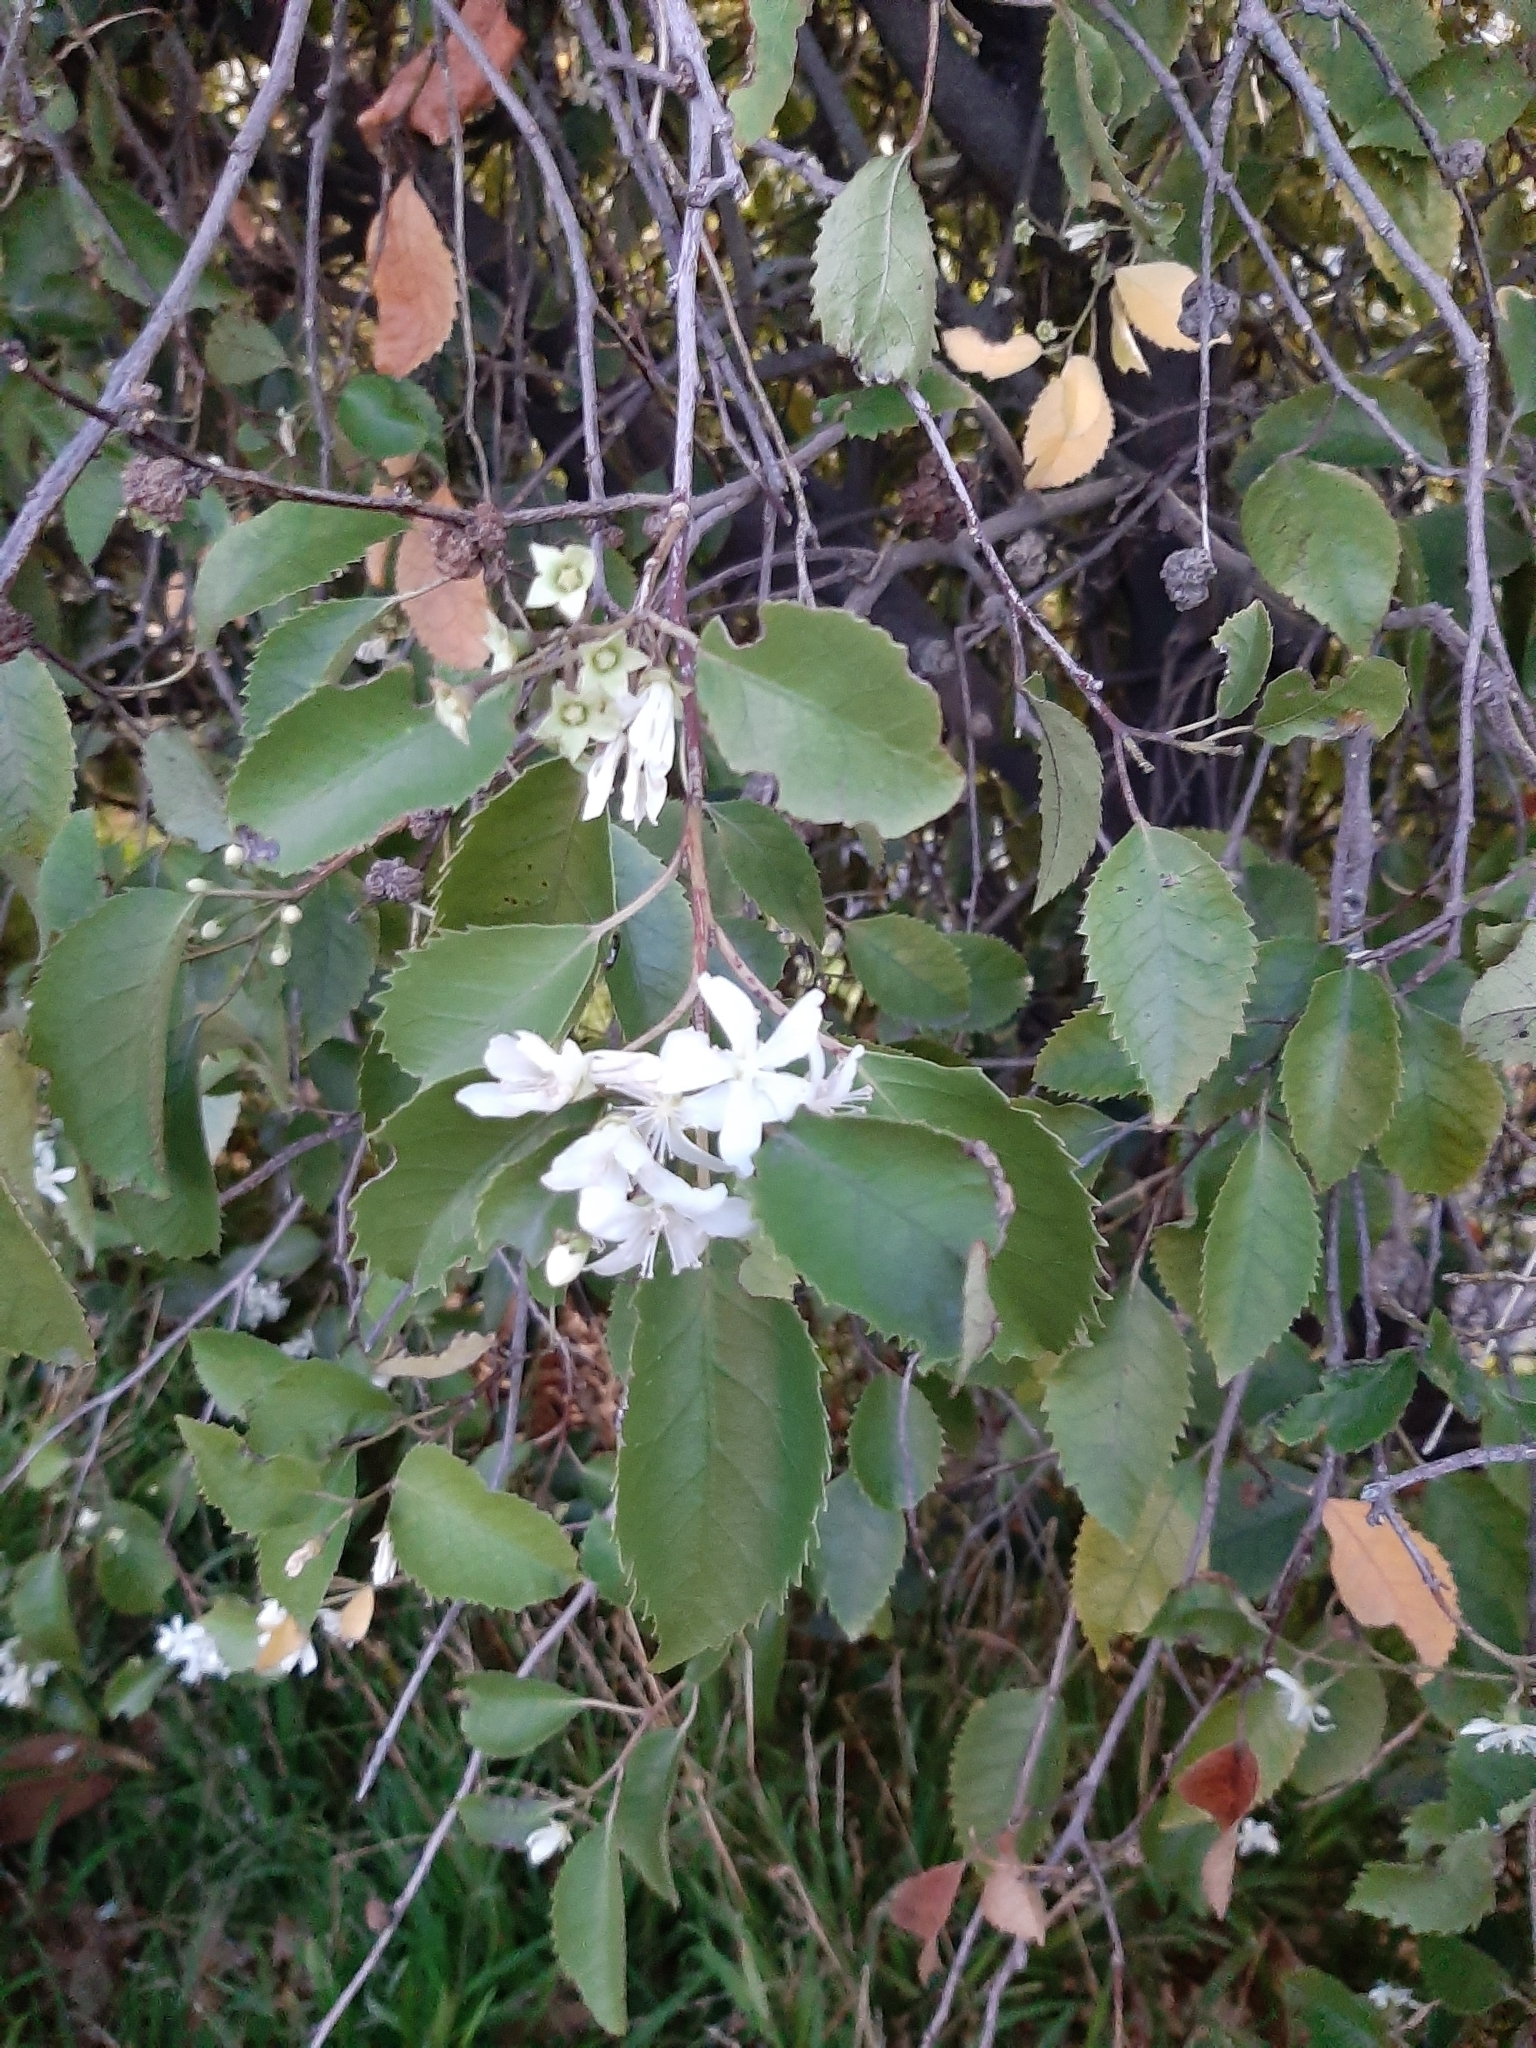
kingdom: Plantae
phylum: Tracheophyta
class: Magnoliopsida
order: Malvales
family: Malvaceae
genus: Hoheria
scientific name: Hoheria populnea
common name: Lacebark
